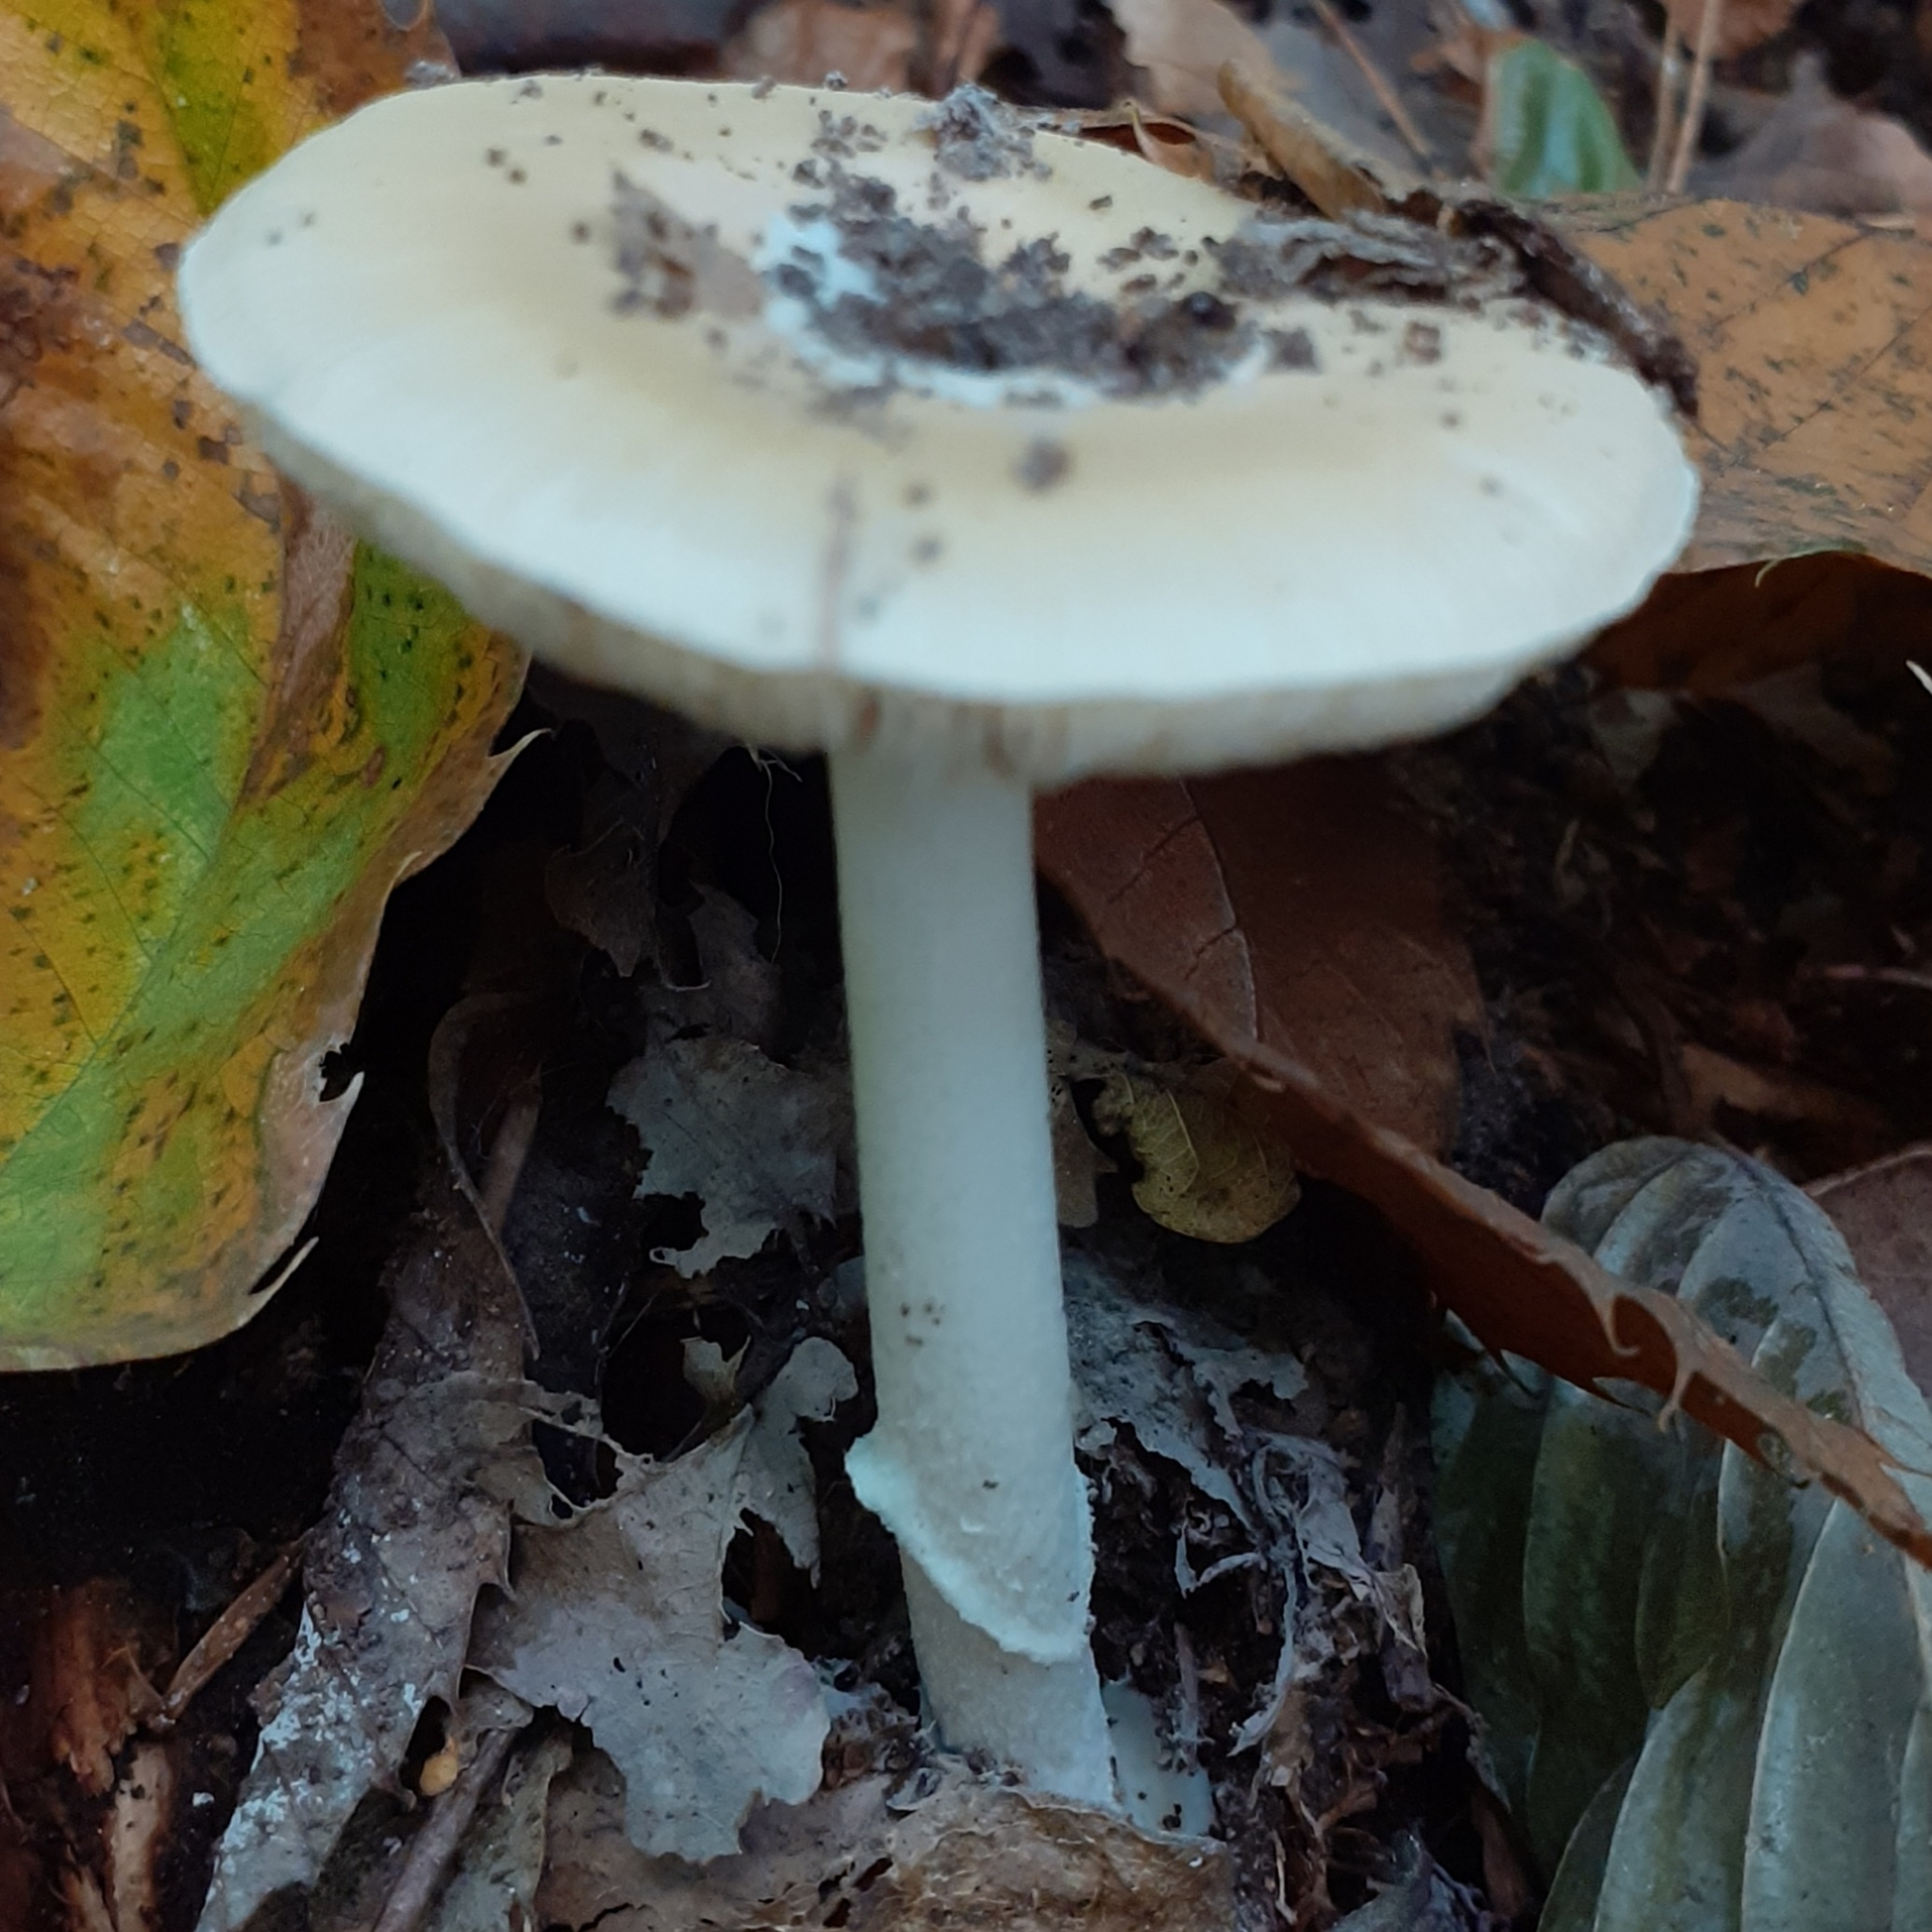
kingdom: Fungi
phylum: Basidiomycota
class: Agaricomycetes
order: Agaricales
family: Amanitaceae
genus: Amanita
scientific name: Amanita gemmata
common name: Jewelled amanita
